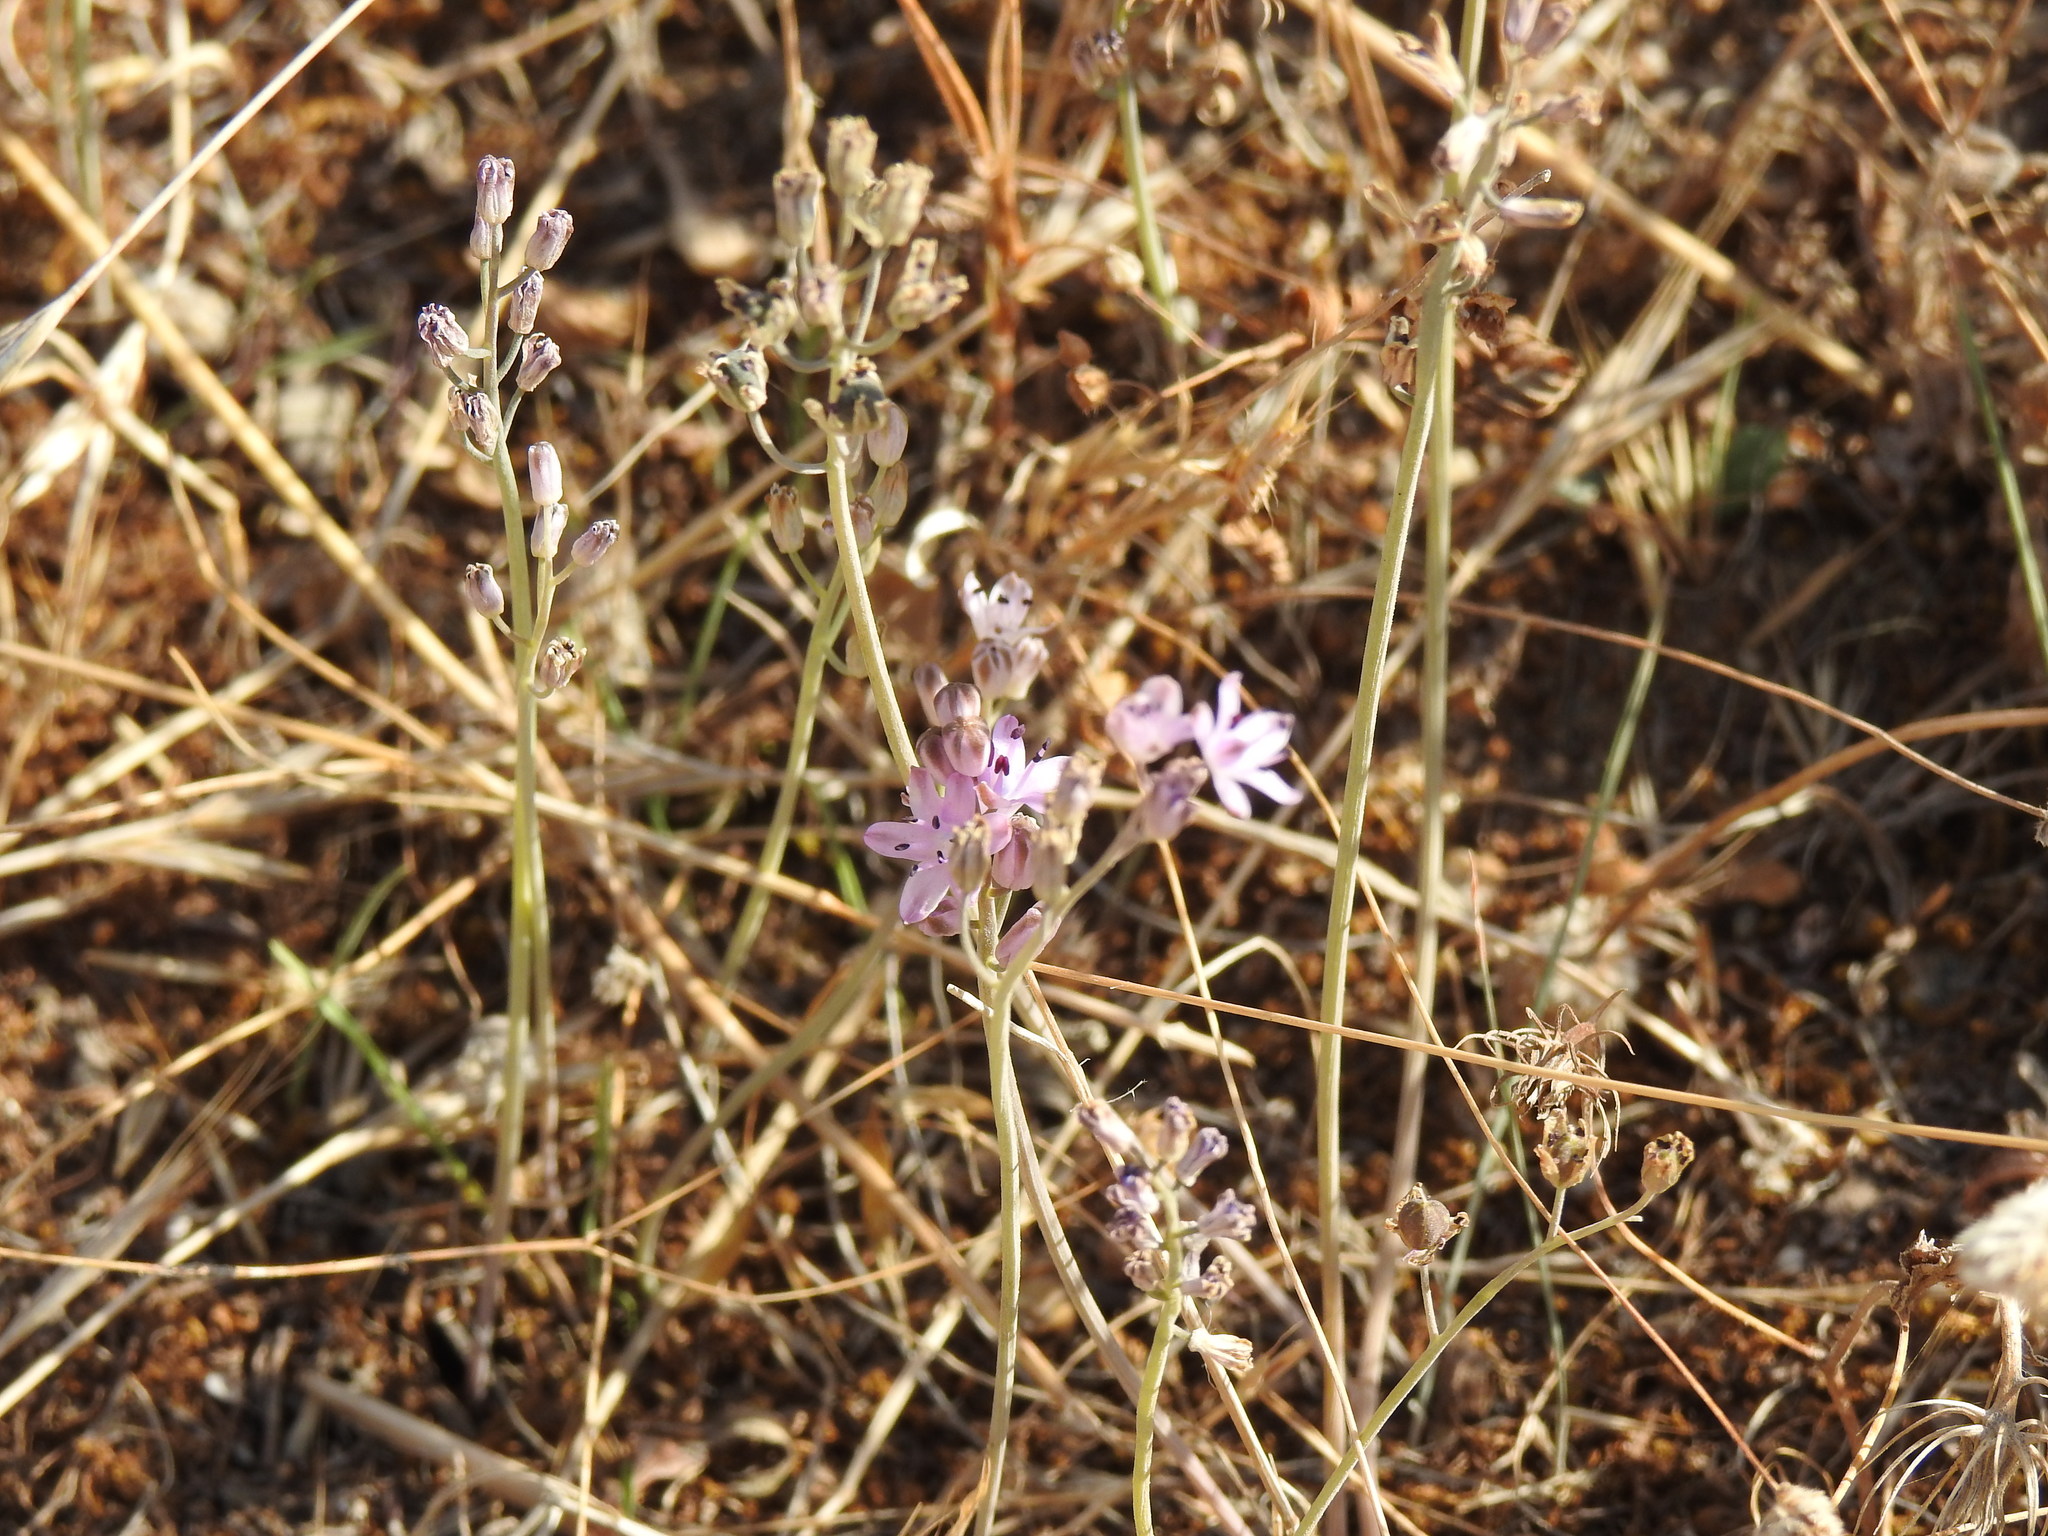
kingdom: Plantae
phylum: Tracheophyta
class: Liliopsida
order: Asparagales
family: Asparagaceae
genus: Prospero
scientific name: Prospero autumnale
